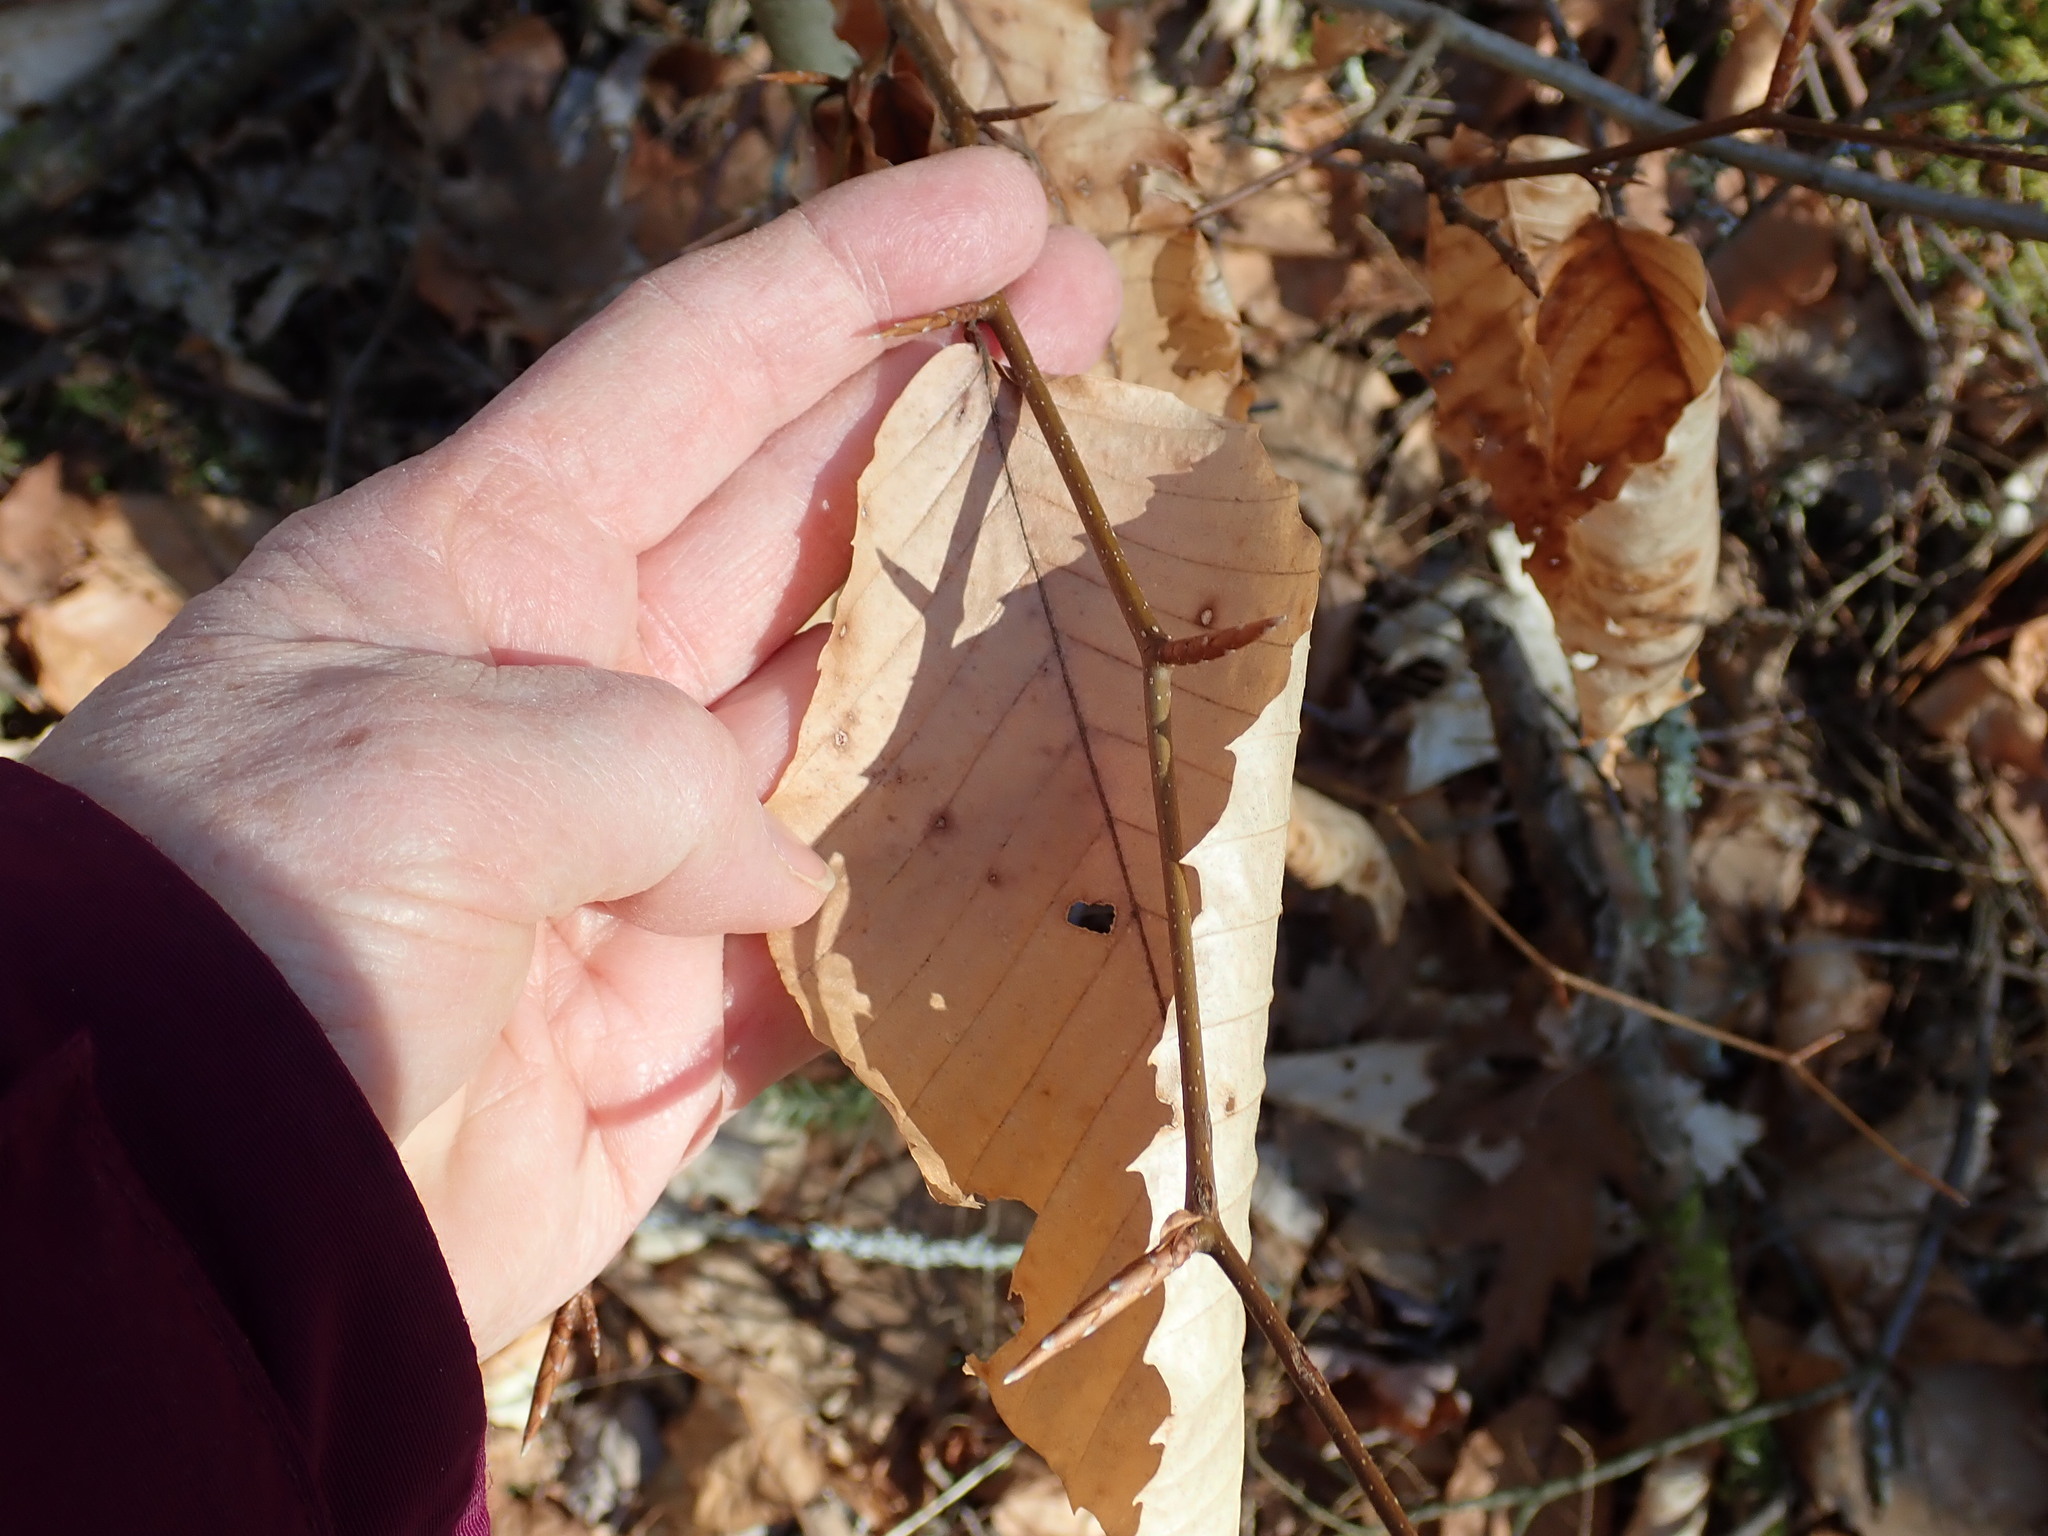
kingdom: Plantae
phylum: Tracheophyta
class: Magnoliopsida
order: Fagales
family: Fagaceae
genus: Fagus
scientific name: Fagus grandifolia
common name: American beech
